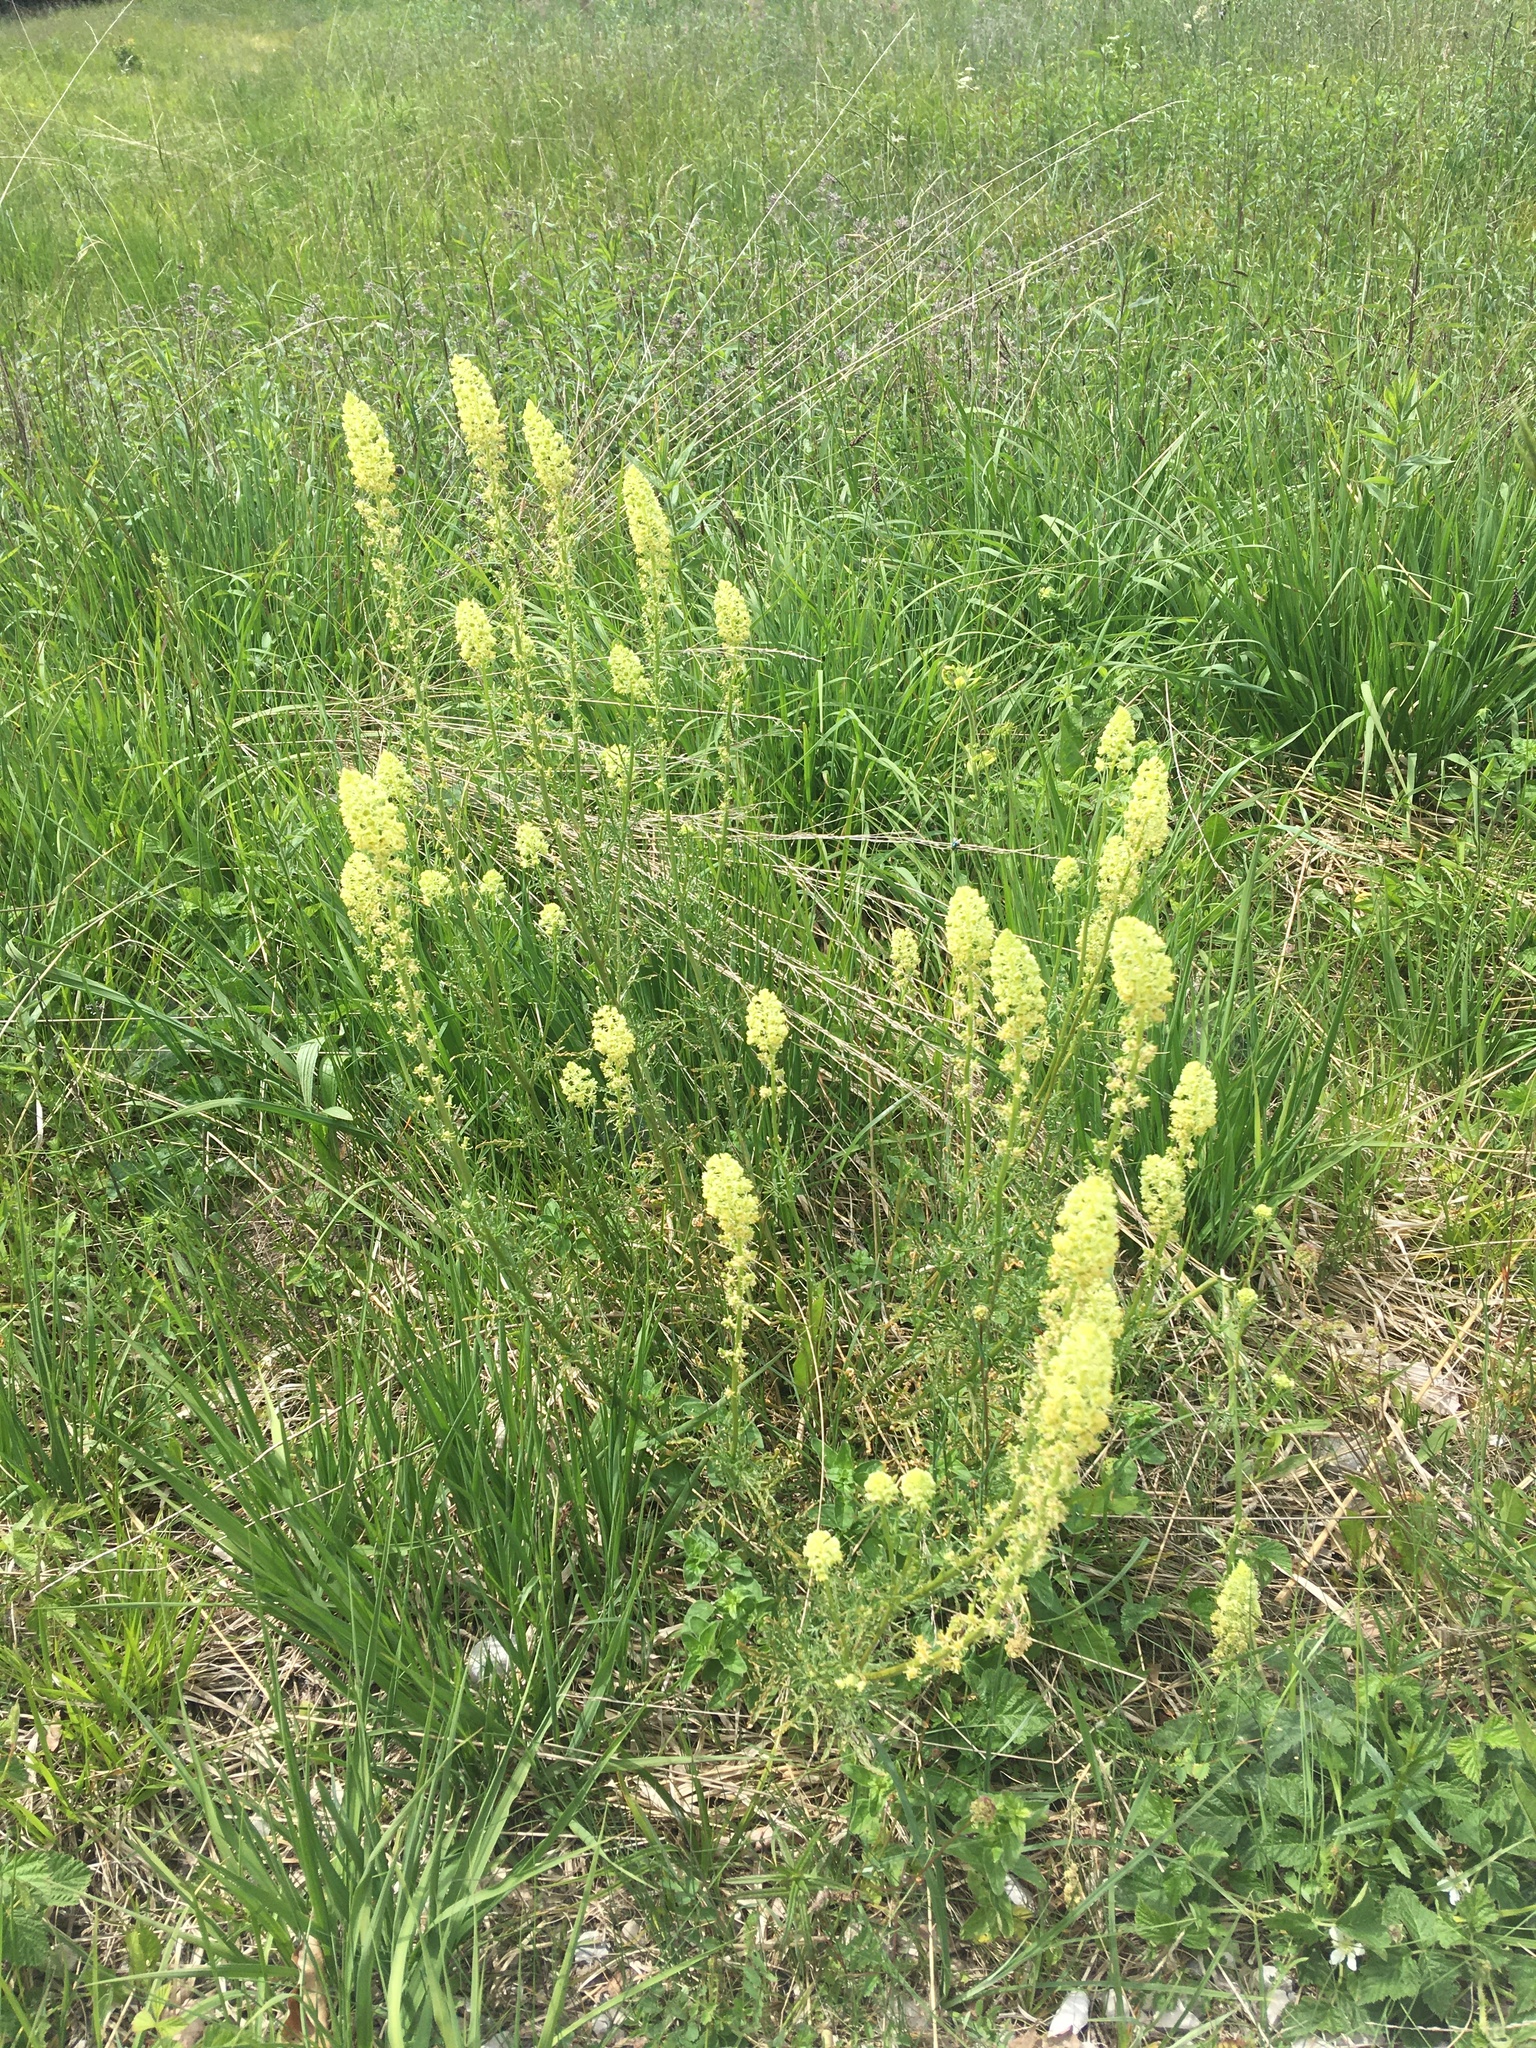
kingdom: Plantae
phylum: Tracheophyta
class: Magnoliopsida
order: Brassicales
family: Resedaceae
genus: Reseda
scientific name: Reseda lutea
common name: Wild mignonette
